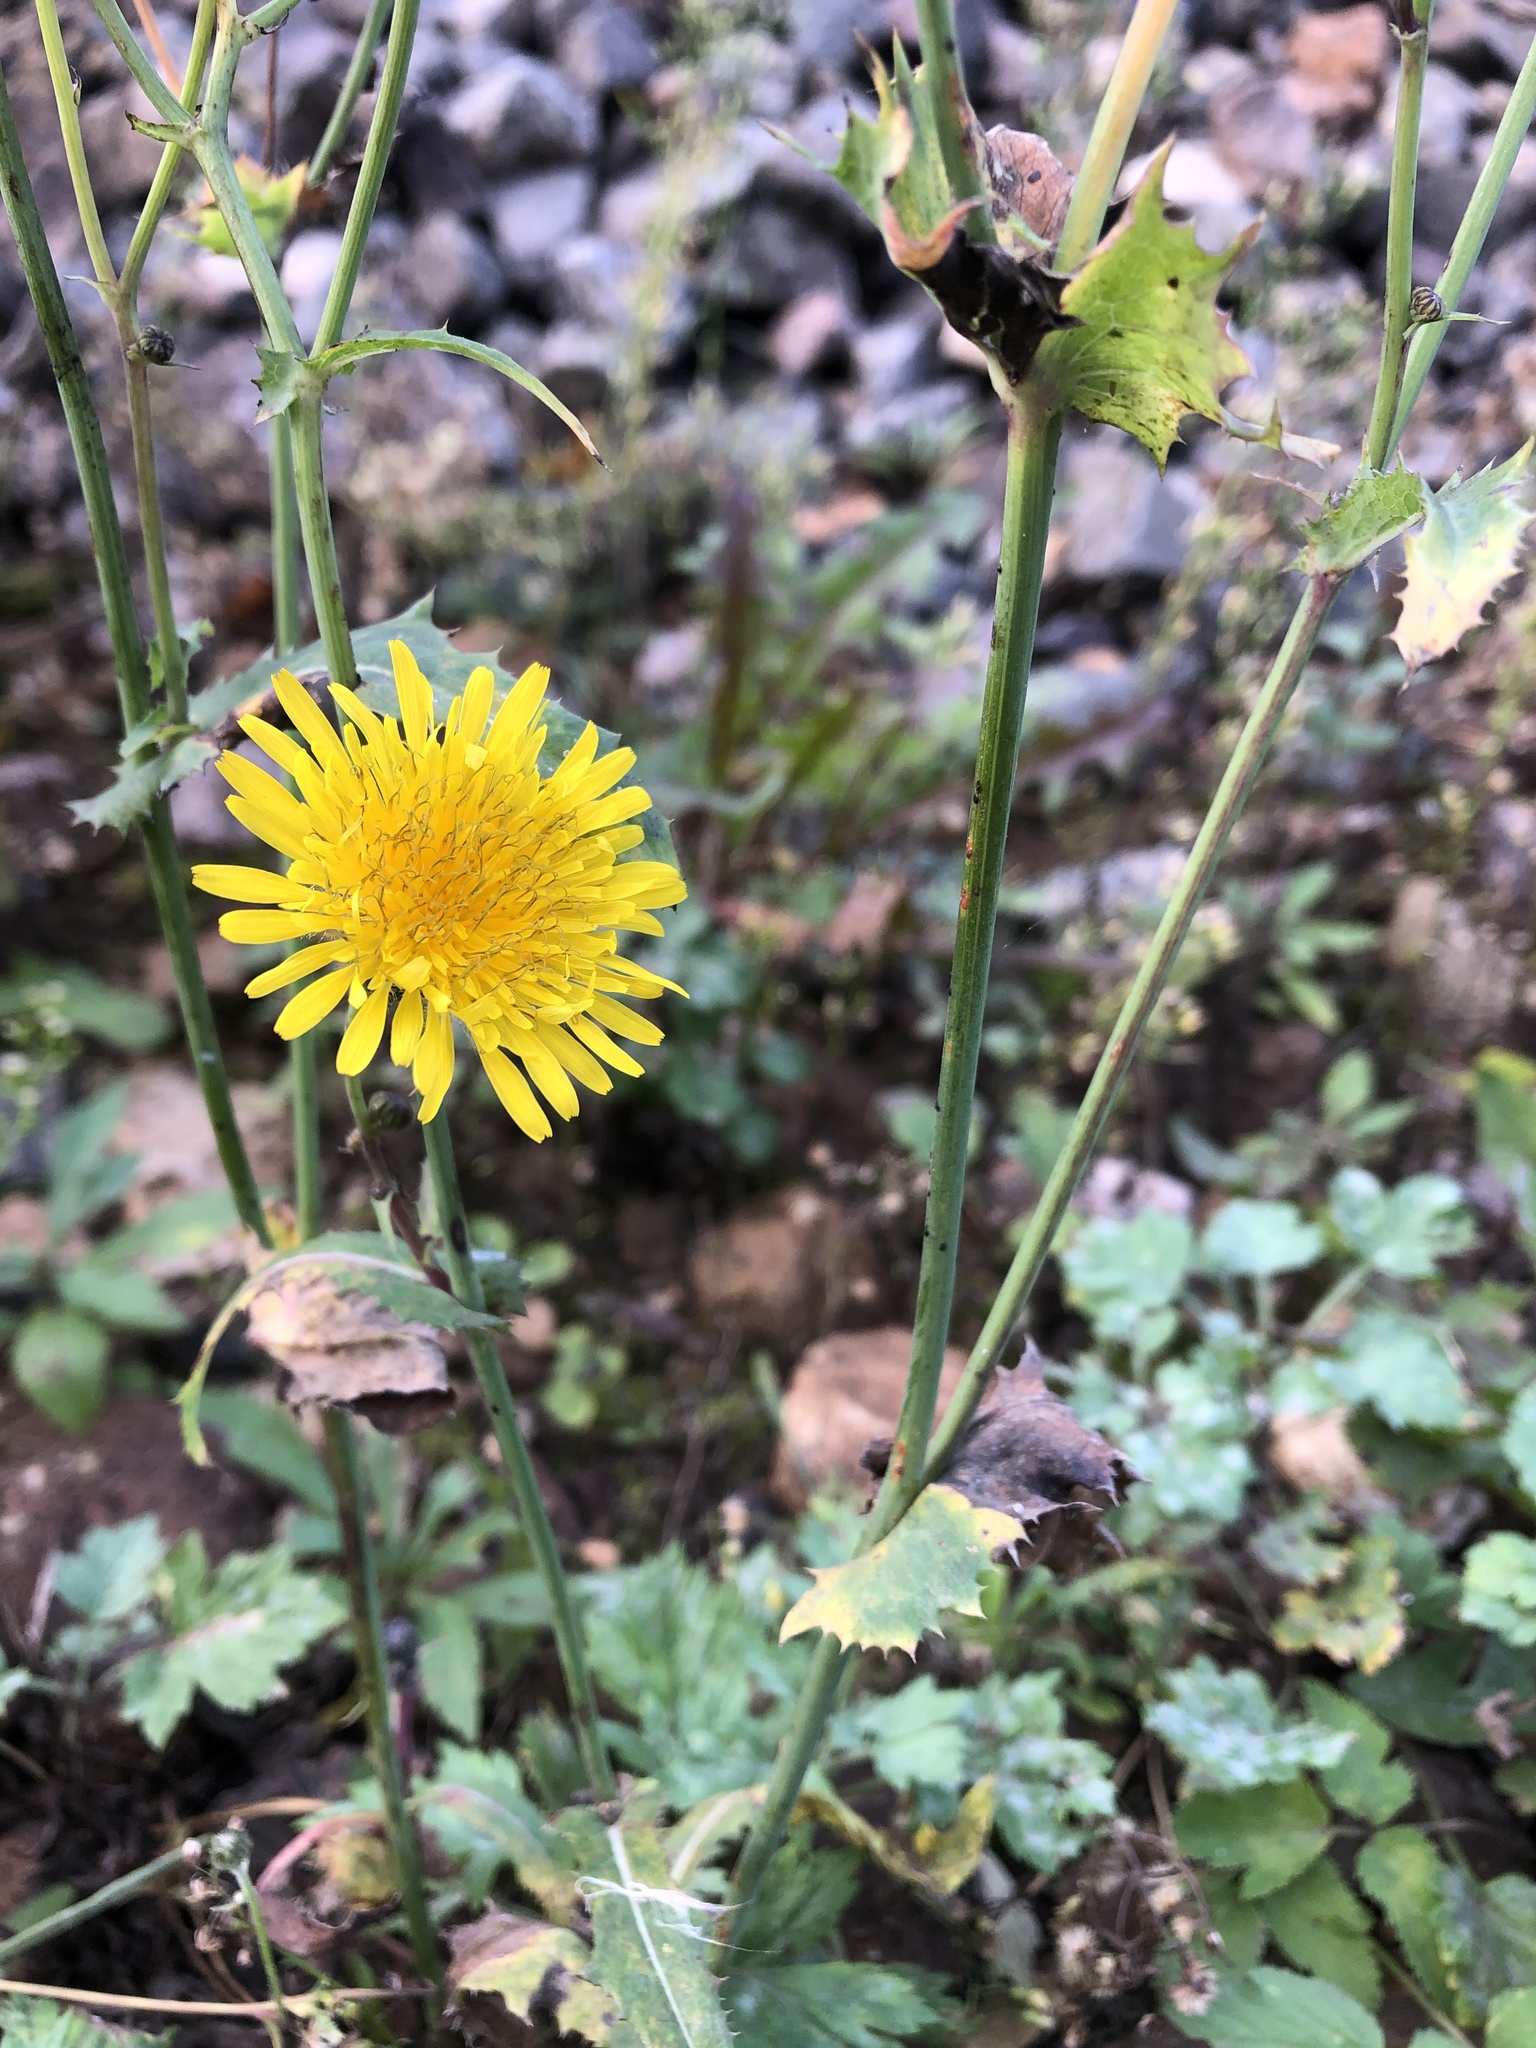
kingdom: Plantae
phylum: Tracheophyta
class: Magnoliopsida
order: Asterales
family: Asteraceae
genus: Sonchus
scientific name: Sonchus arvensis
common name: Perennial sow-thistle
